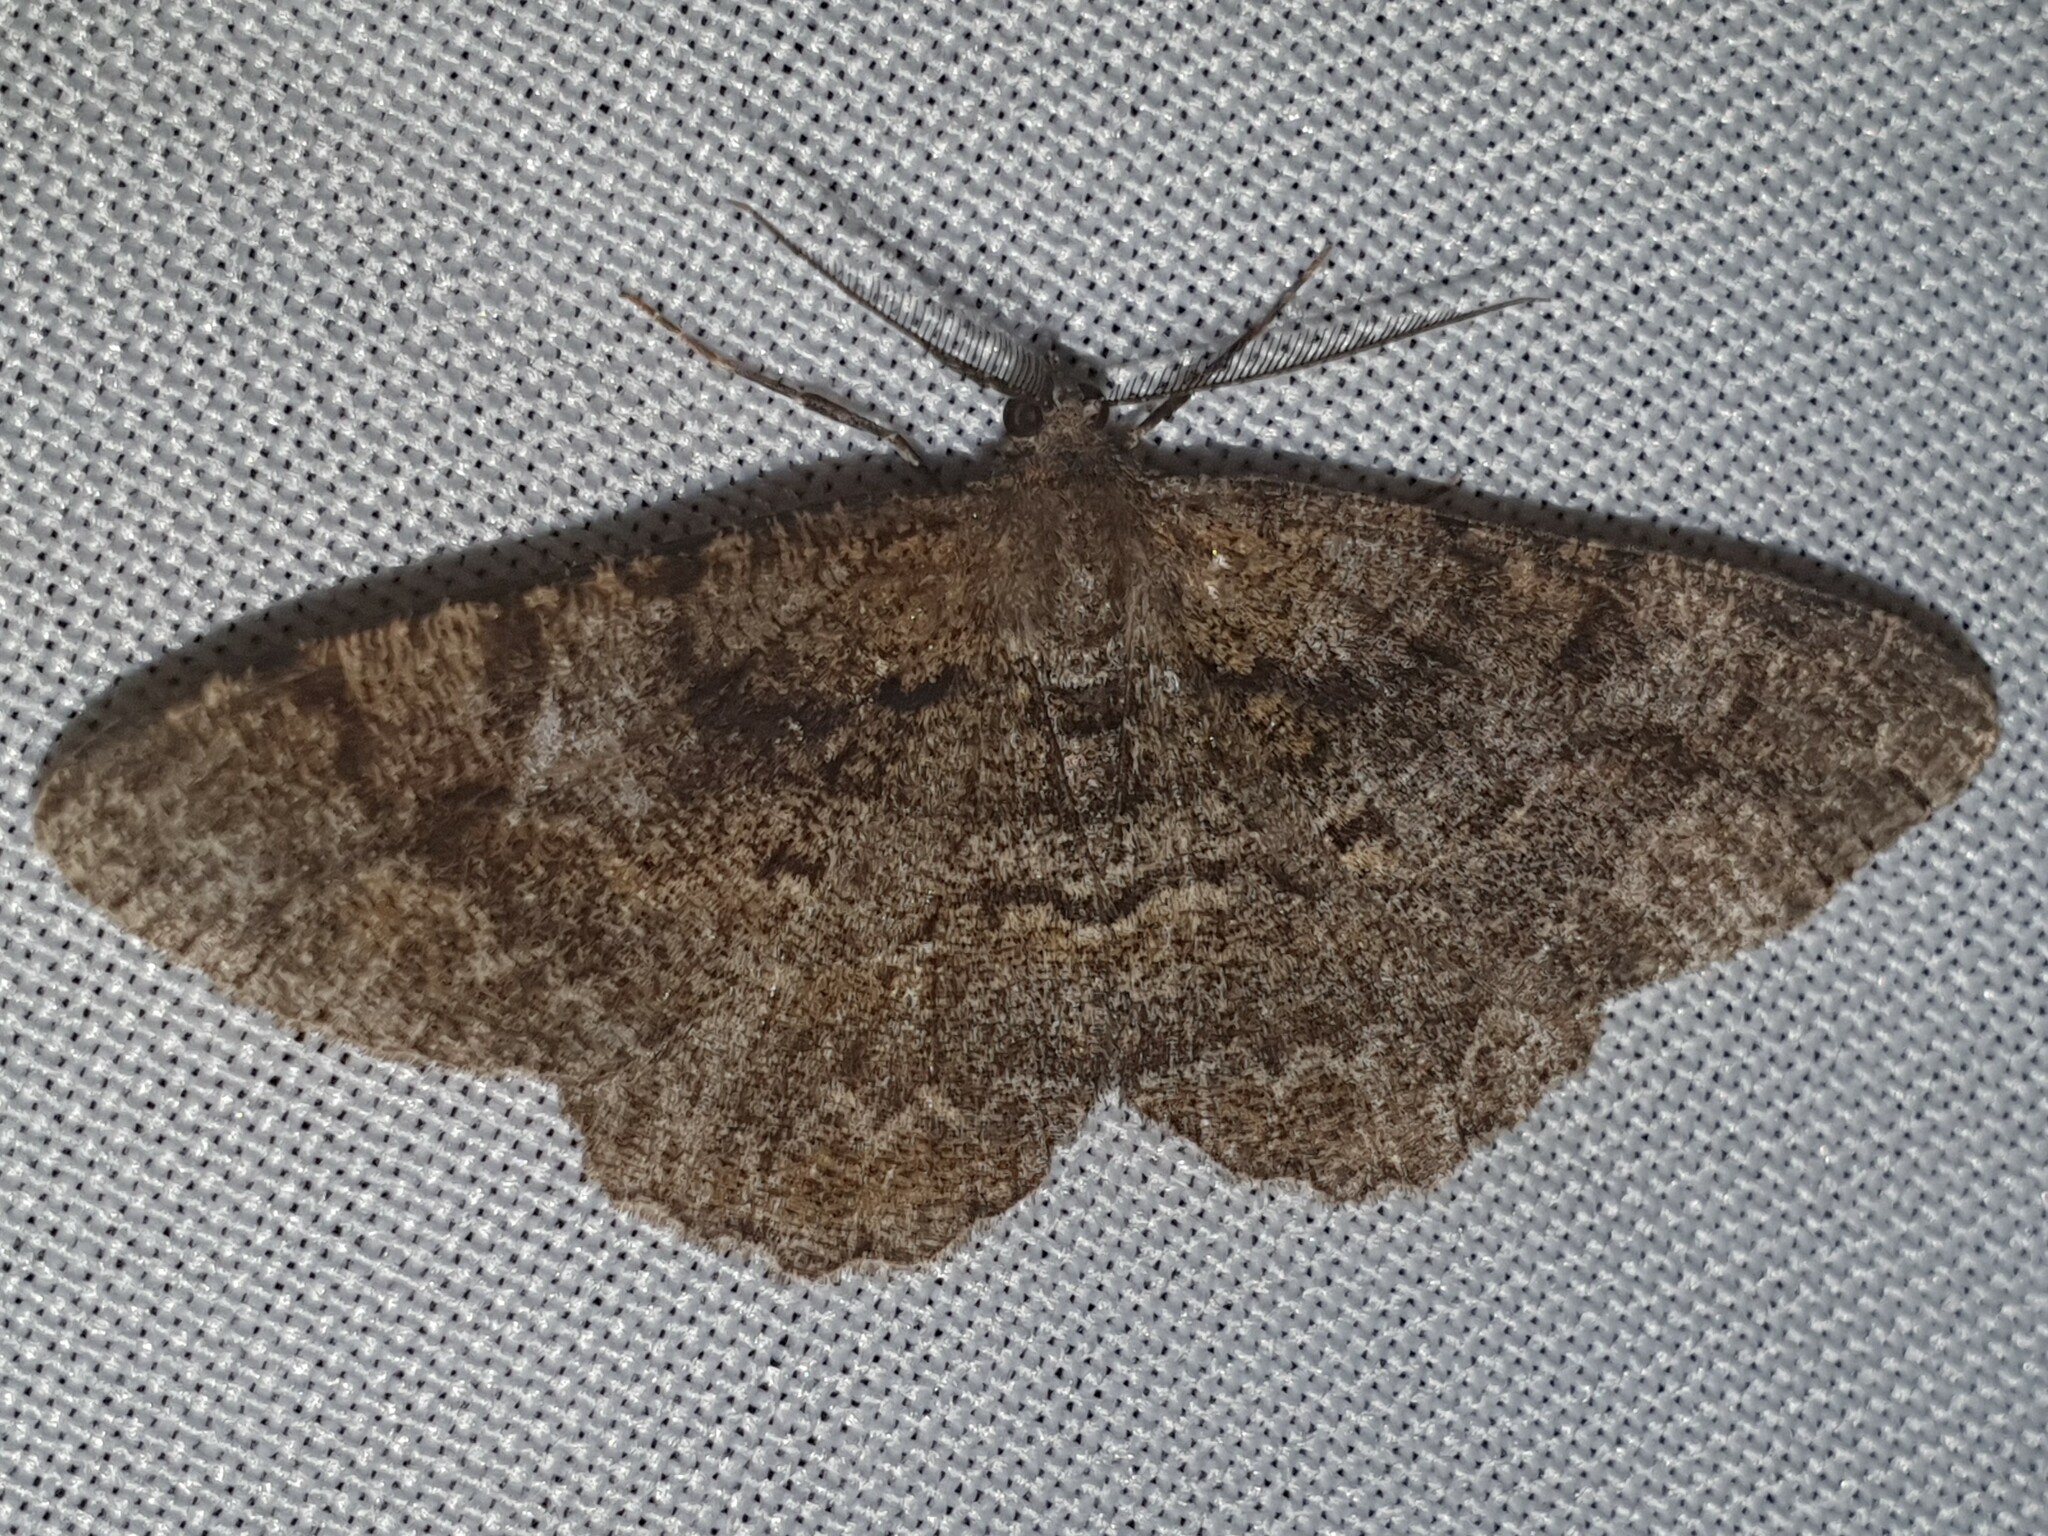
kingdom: Animalia
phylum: Arthropoda
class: Insecta
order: Lepidoptera
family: Geometridae
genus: Alcis
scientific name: Alcis repandata
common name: Mottled beauty
